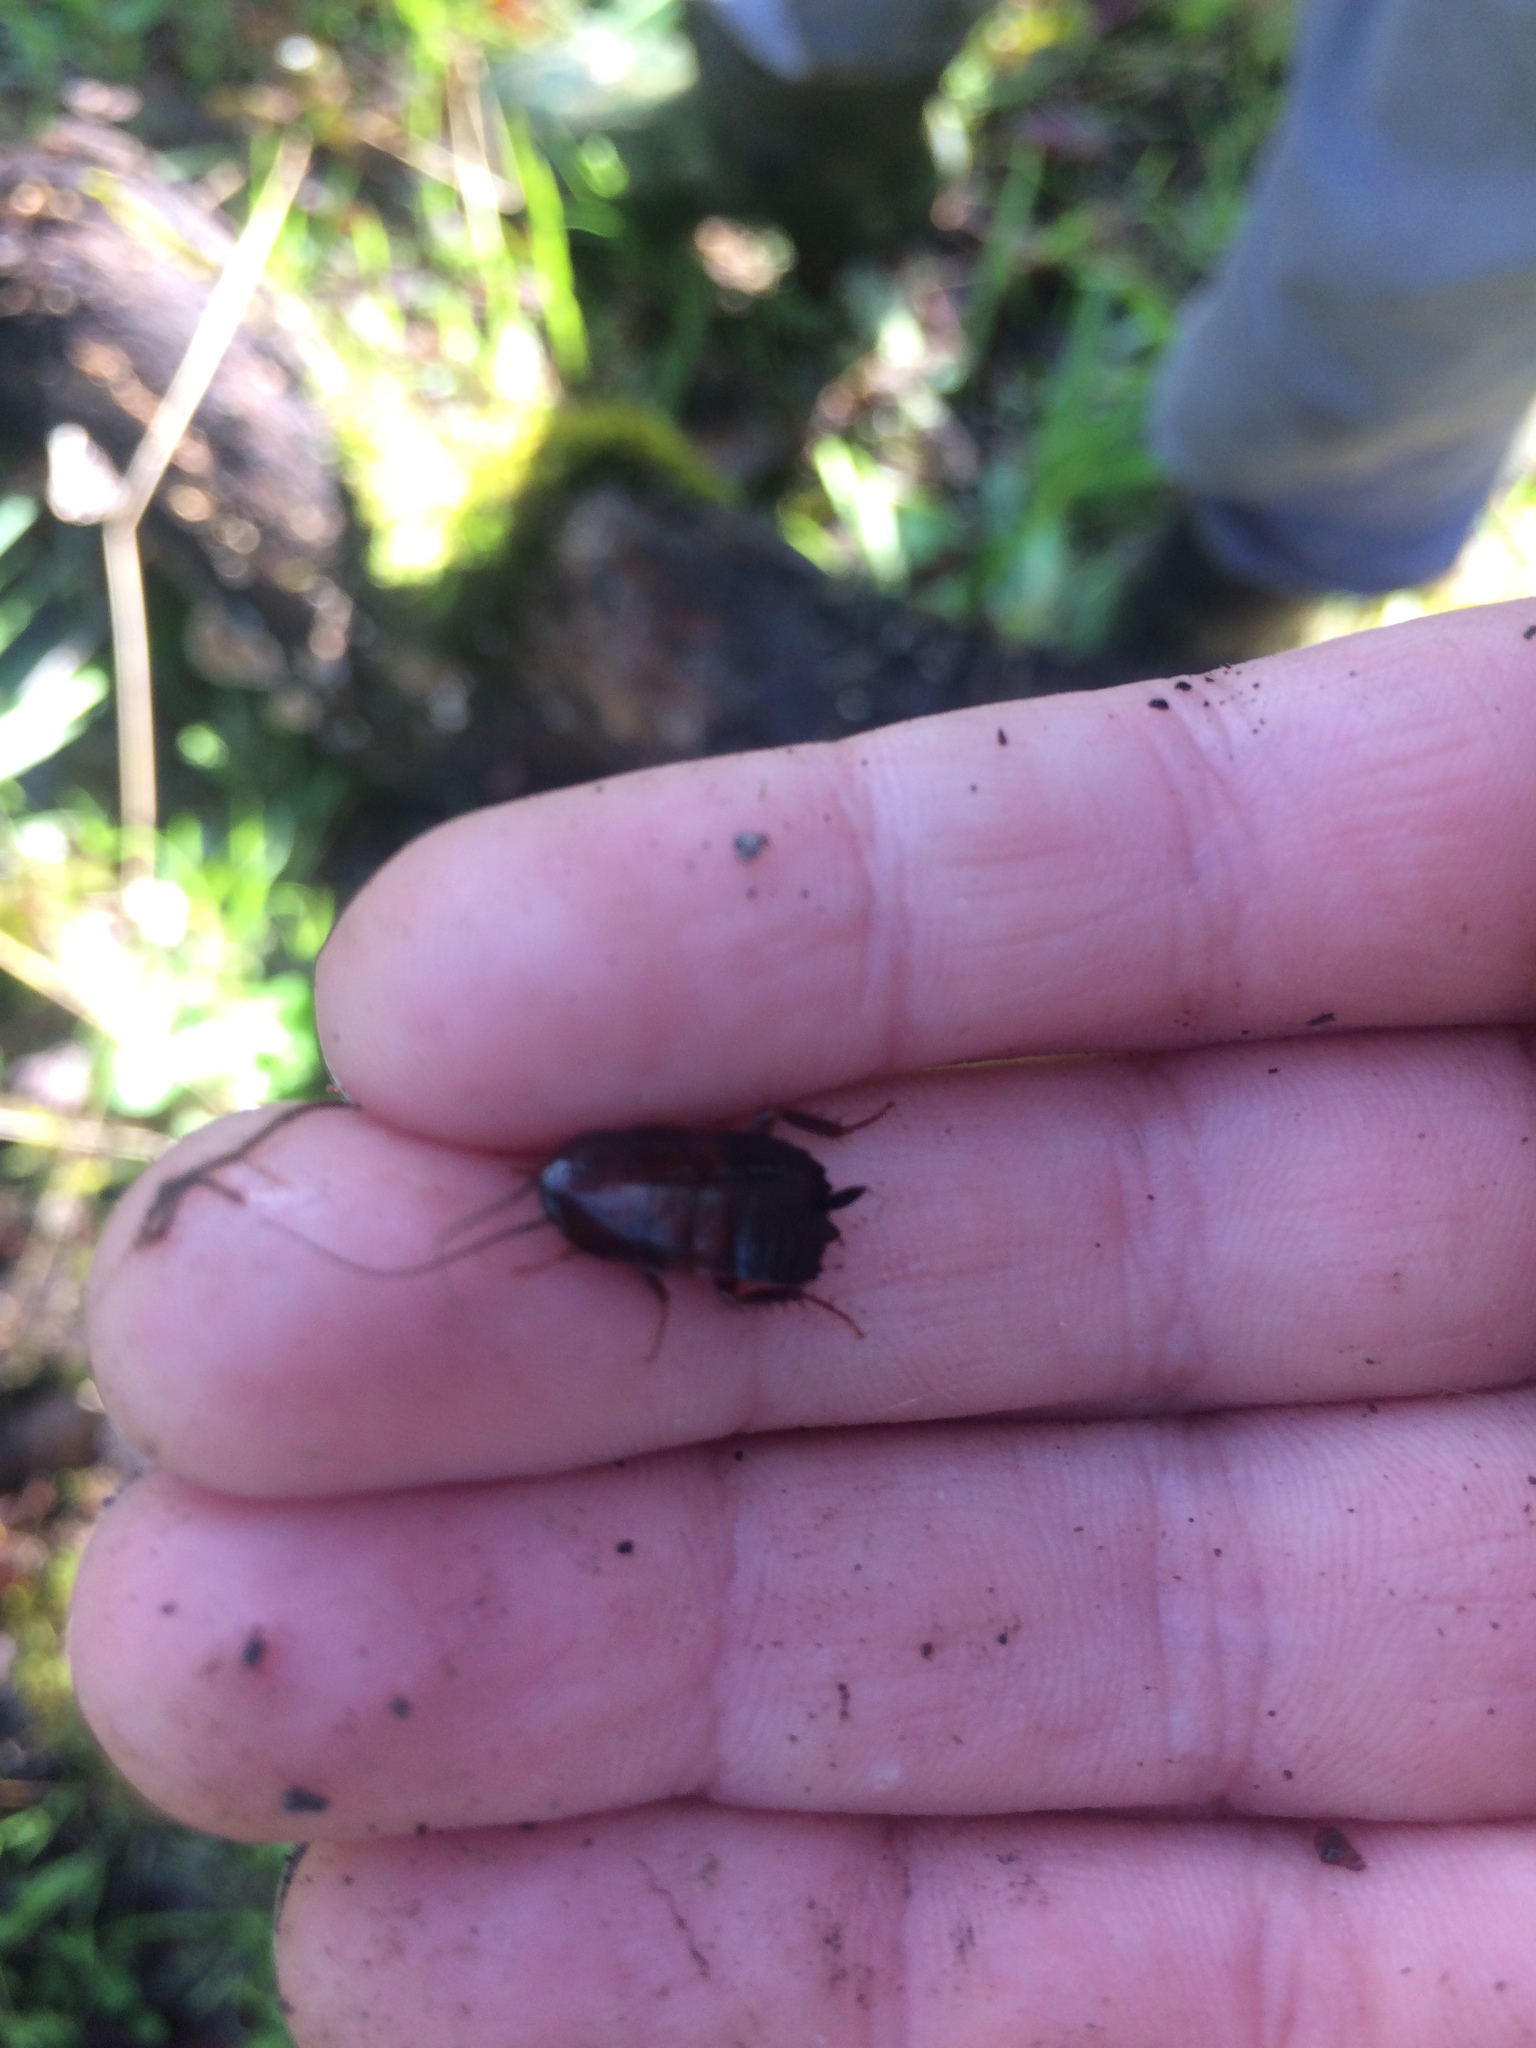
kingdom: Animalia
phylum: Arthropoda
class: Insecta
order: Blattodea
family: Ectobiidae
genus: Parcoblatta
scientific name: Parcoblatta americana
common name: Western wood cockroach
